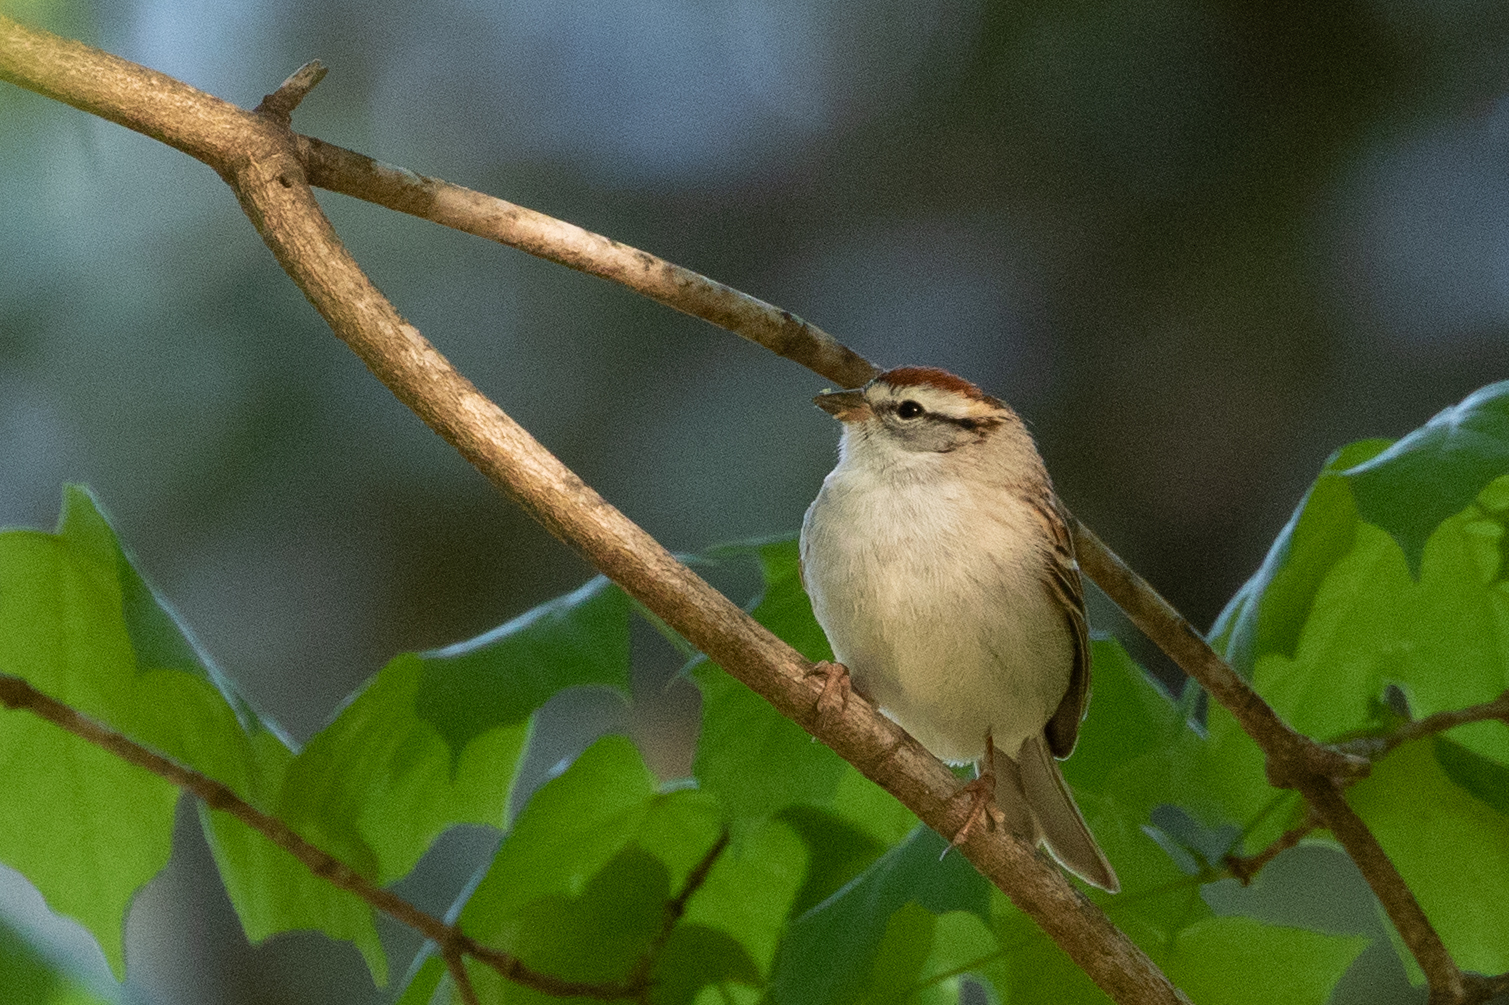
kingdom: Animalia
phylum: Chordata
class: Aves
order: Passeriformes
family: Passerellidae
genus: Spizella
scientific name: Spizella passerina
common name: Chipping sparrow
